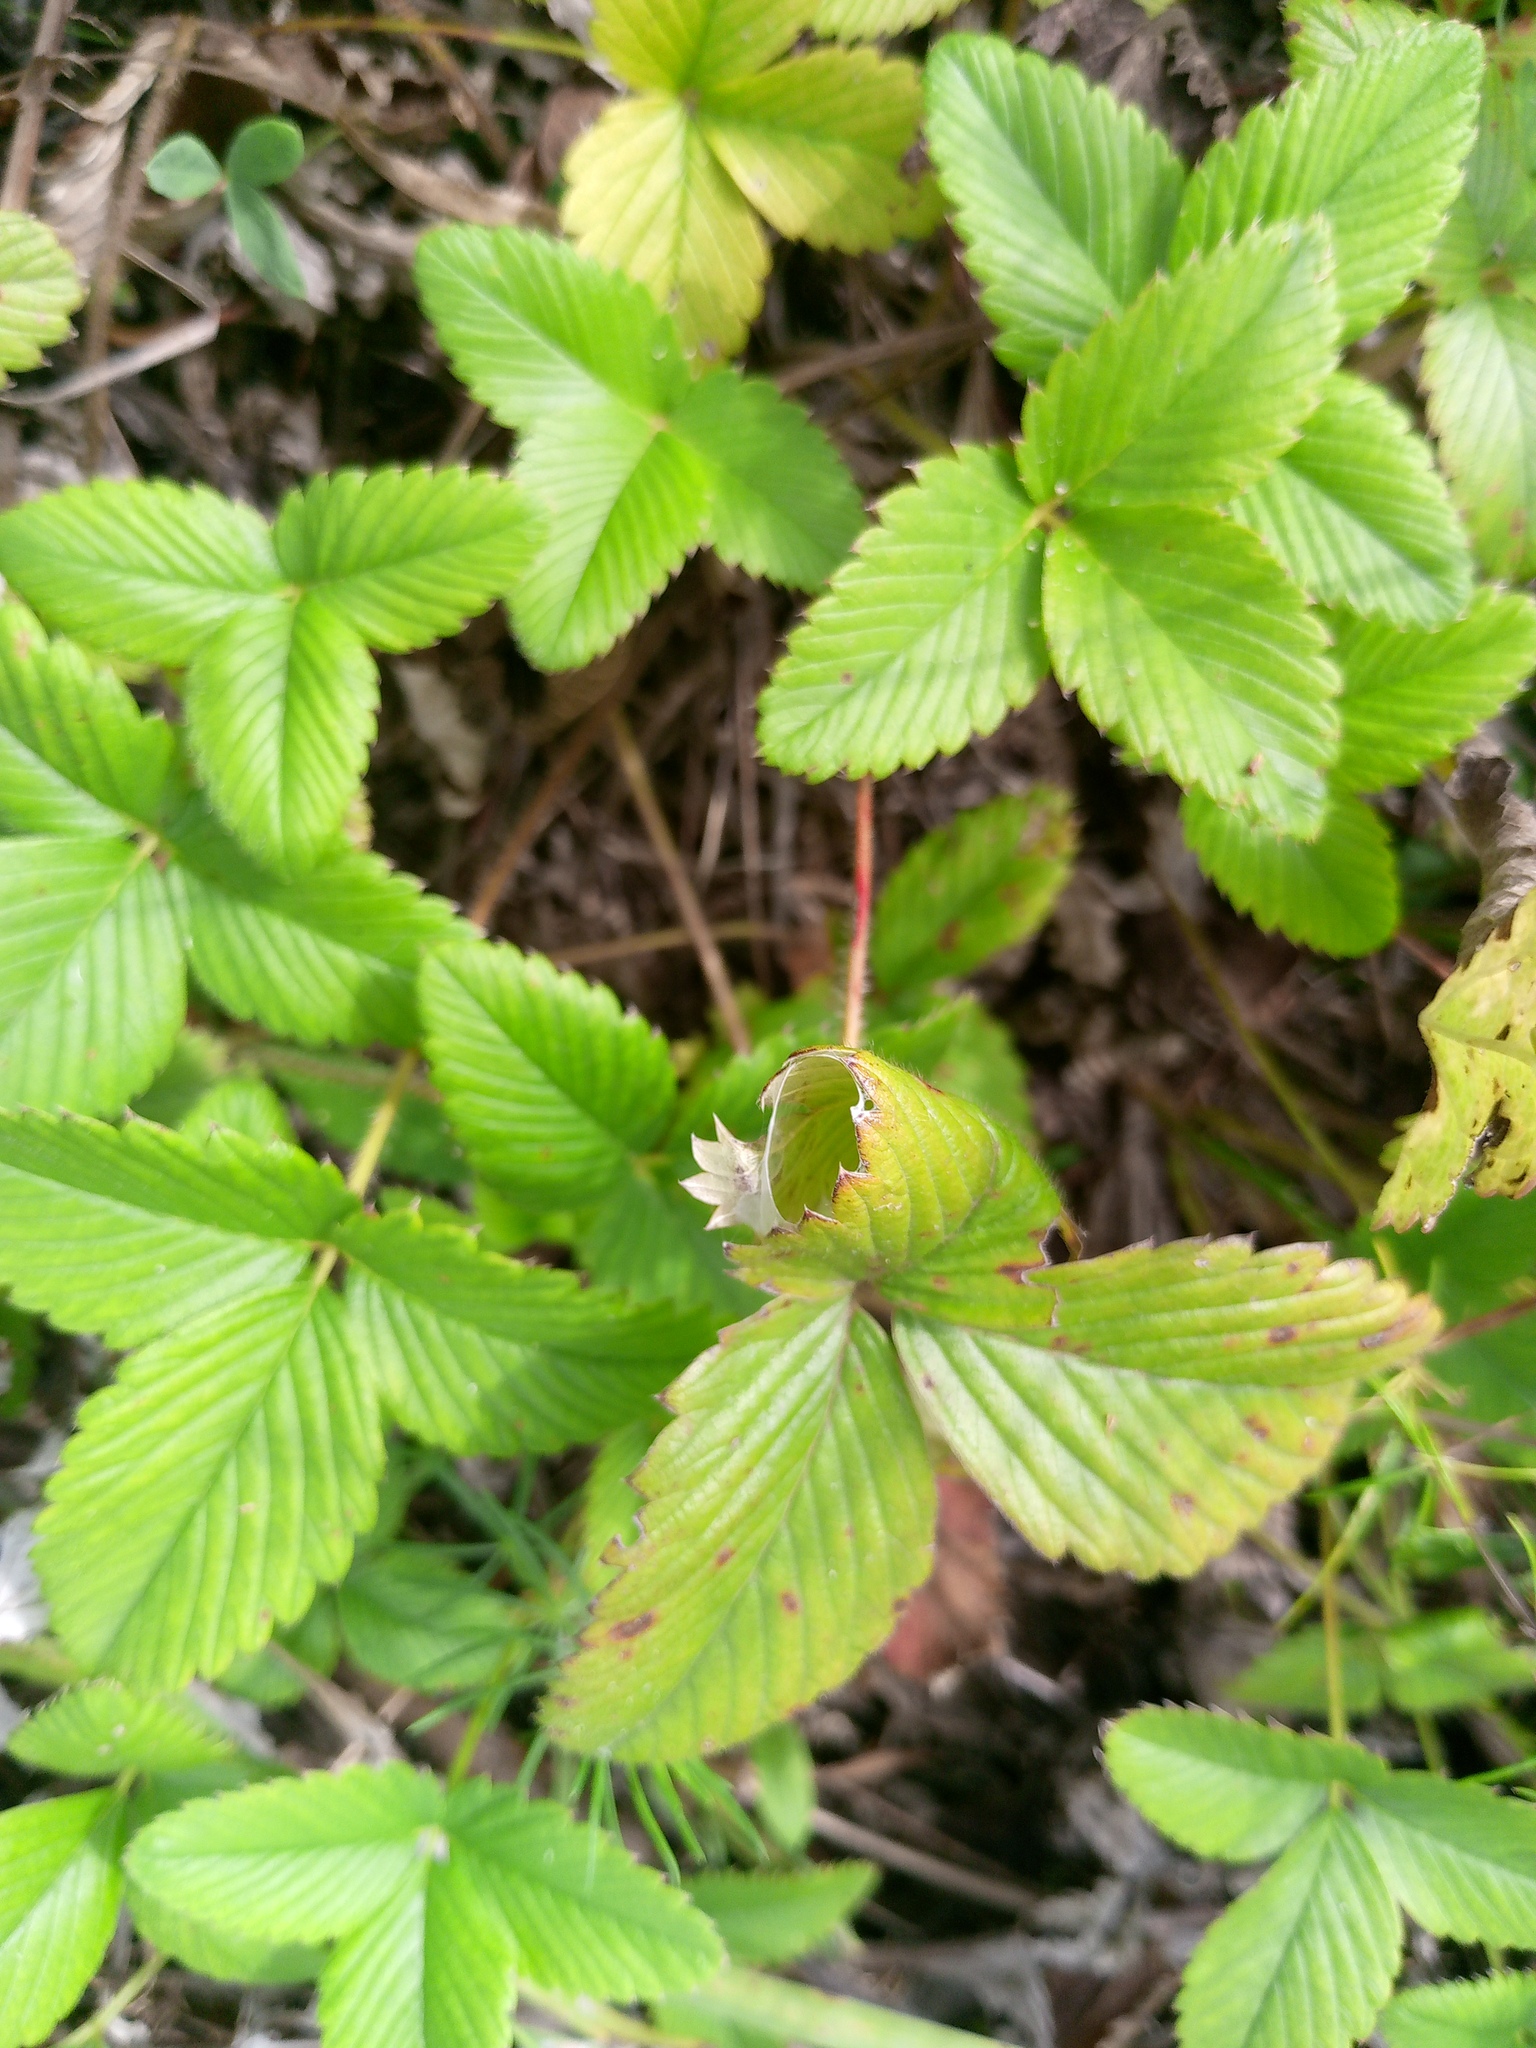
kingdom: Plantae
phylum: Tracheophyta
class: Magnoliopsida
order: Rosales
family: Rosaceae
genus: Fragaria
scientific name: Fragaria viridis
